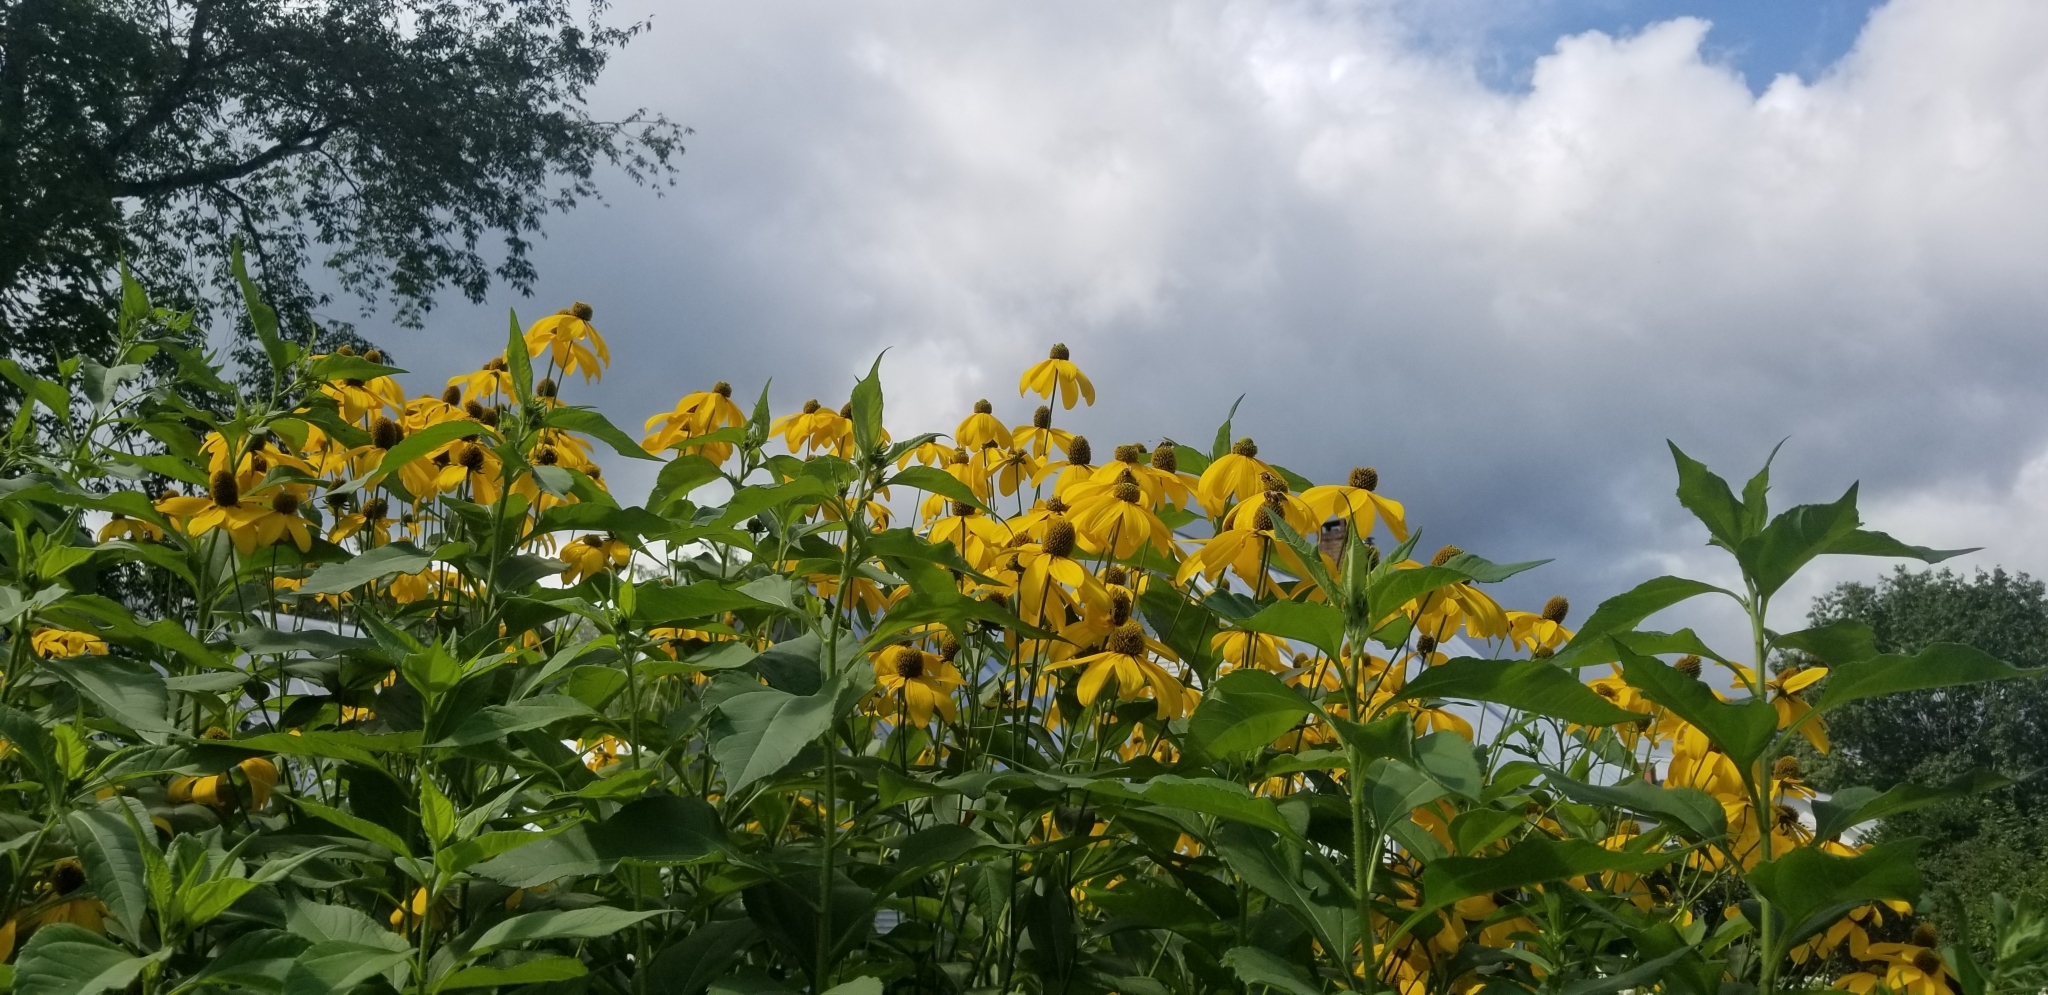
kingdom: Plantae
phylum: Tracheophyta
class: Magnoliopsida
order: Asterales
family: Asteraceae
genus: Rudbeckia
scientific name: Rudbeckia laciniata
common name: Coneflower
